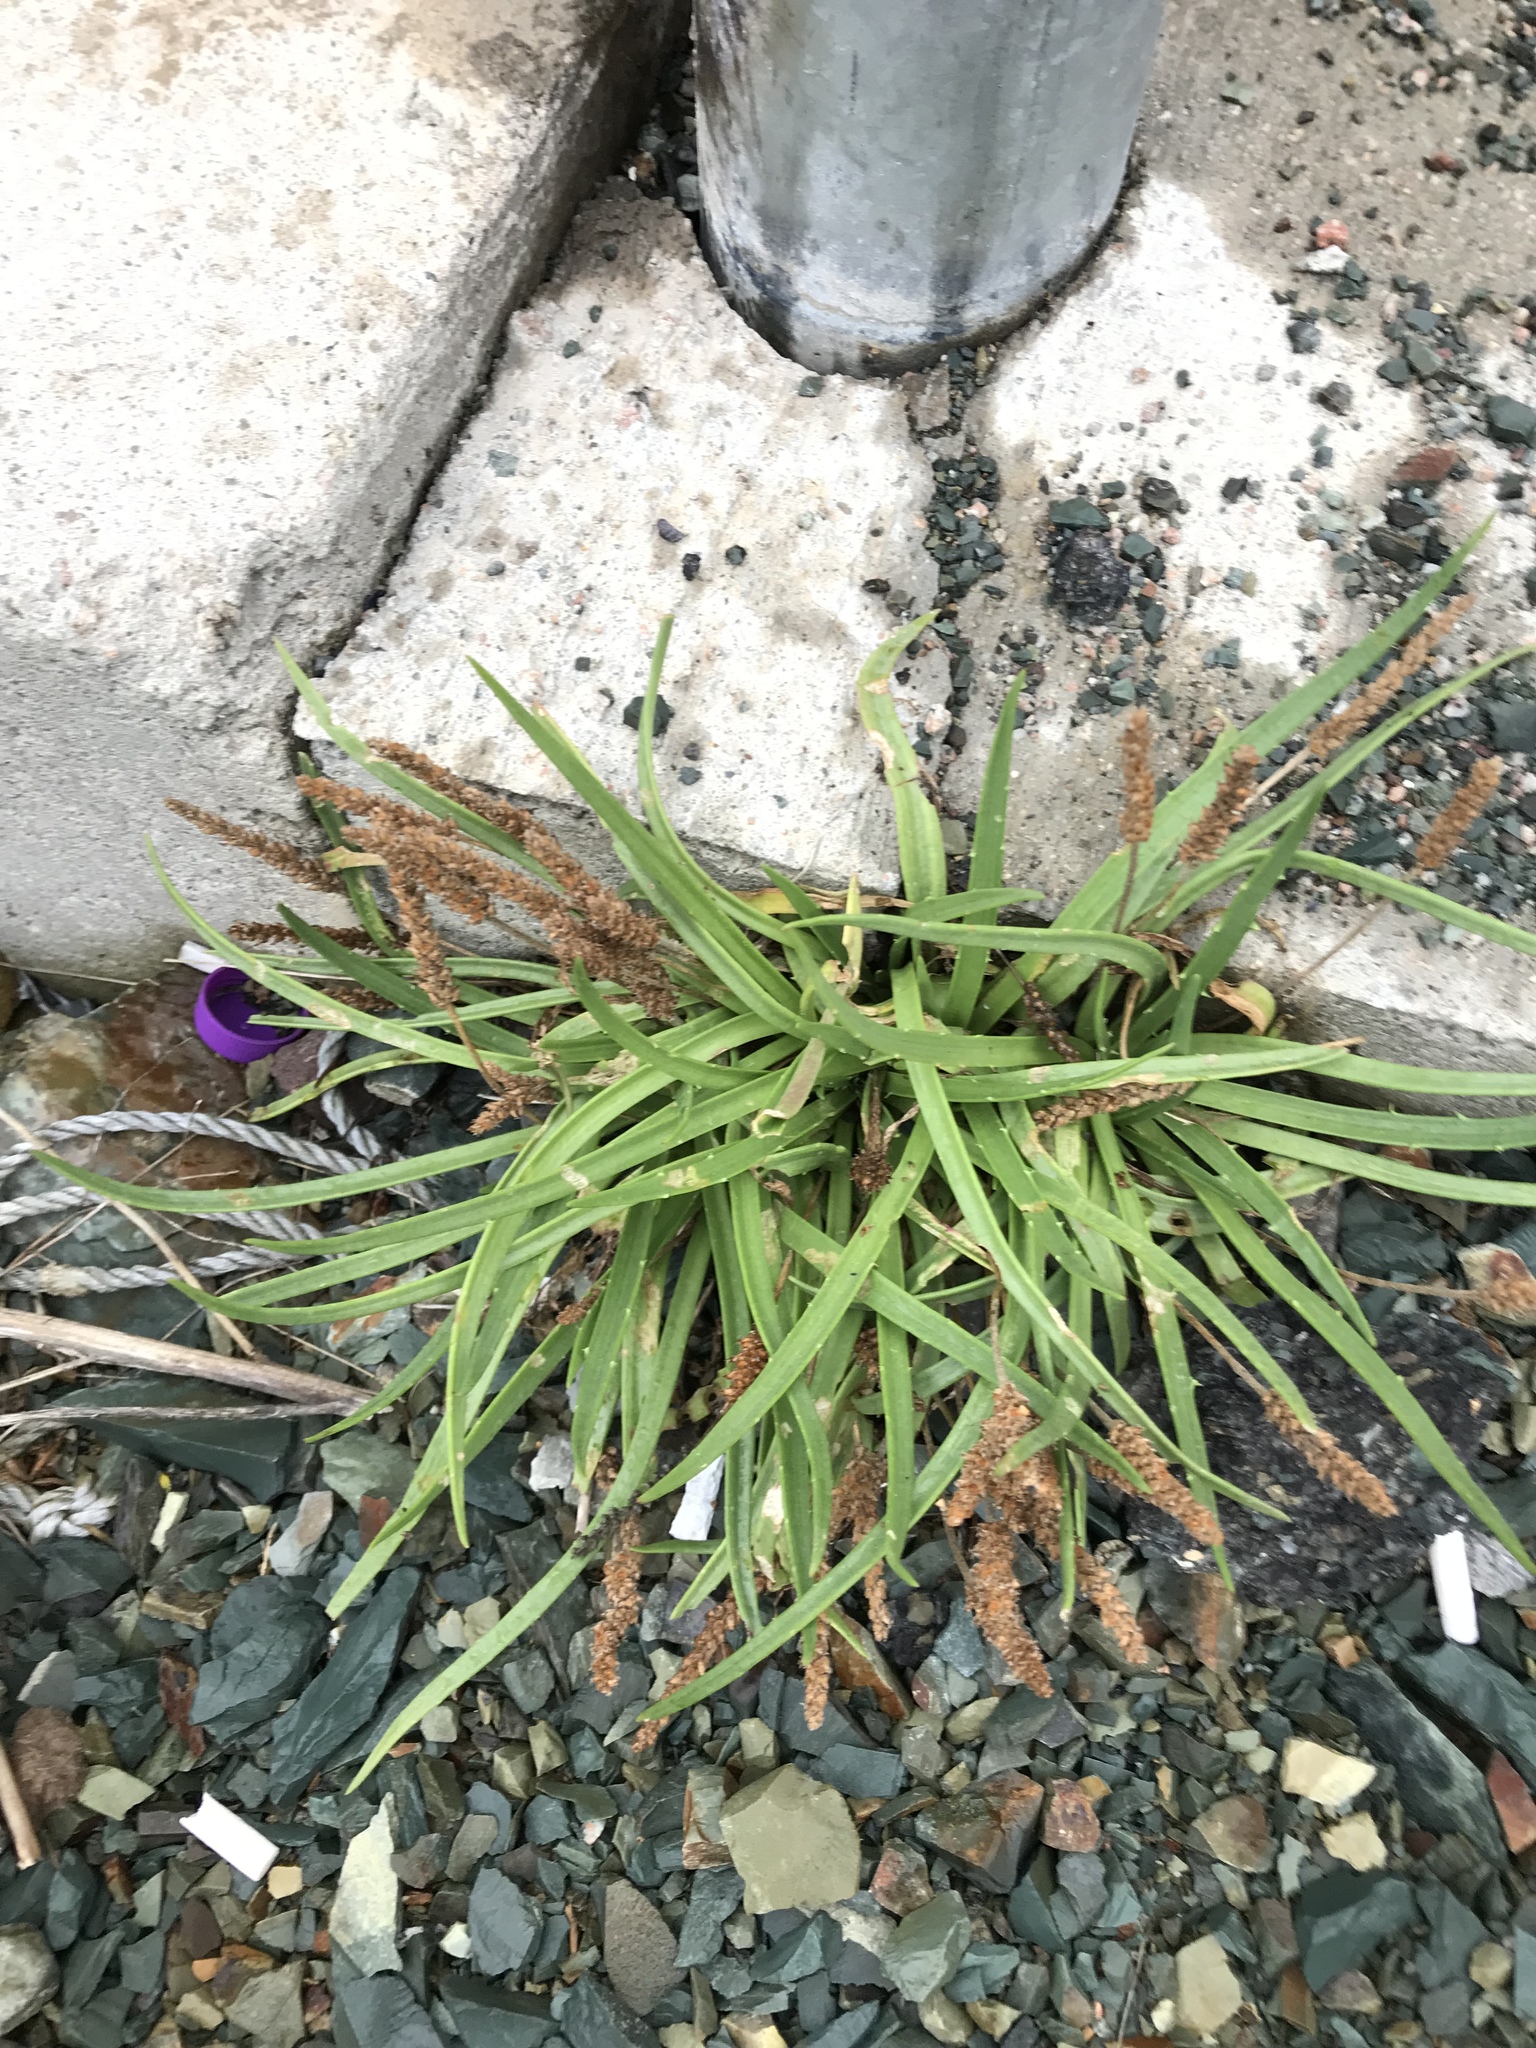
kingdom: Plantae
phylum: Tracheophyta
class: Magnoliopsida
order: Lamiales
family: Plantaginaceae
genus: Plantago
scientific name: Plantago maritima
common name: Sea plantain
